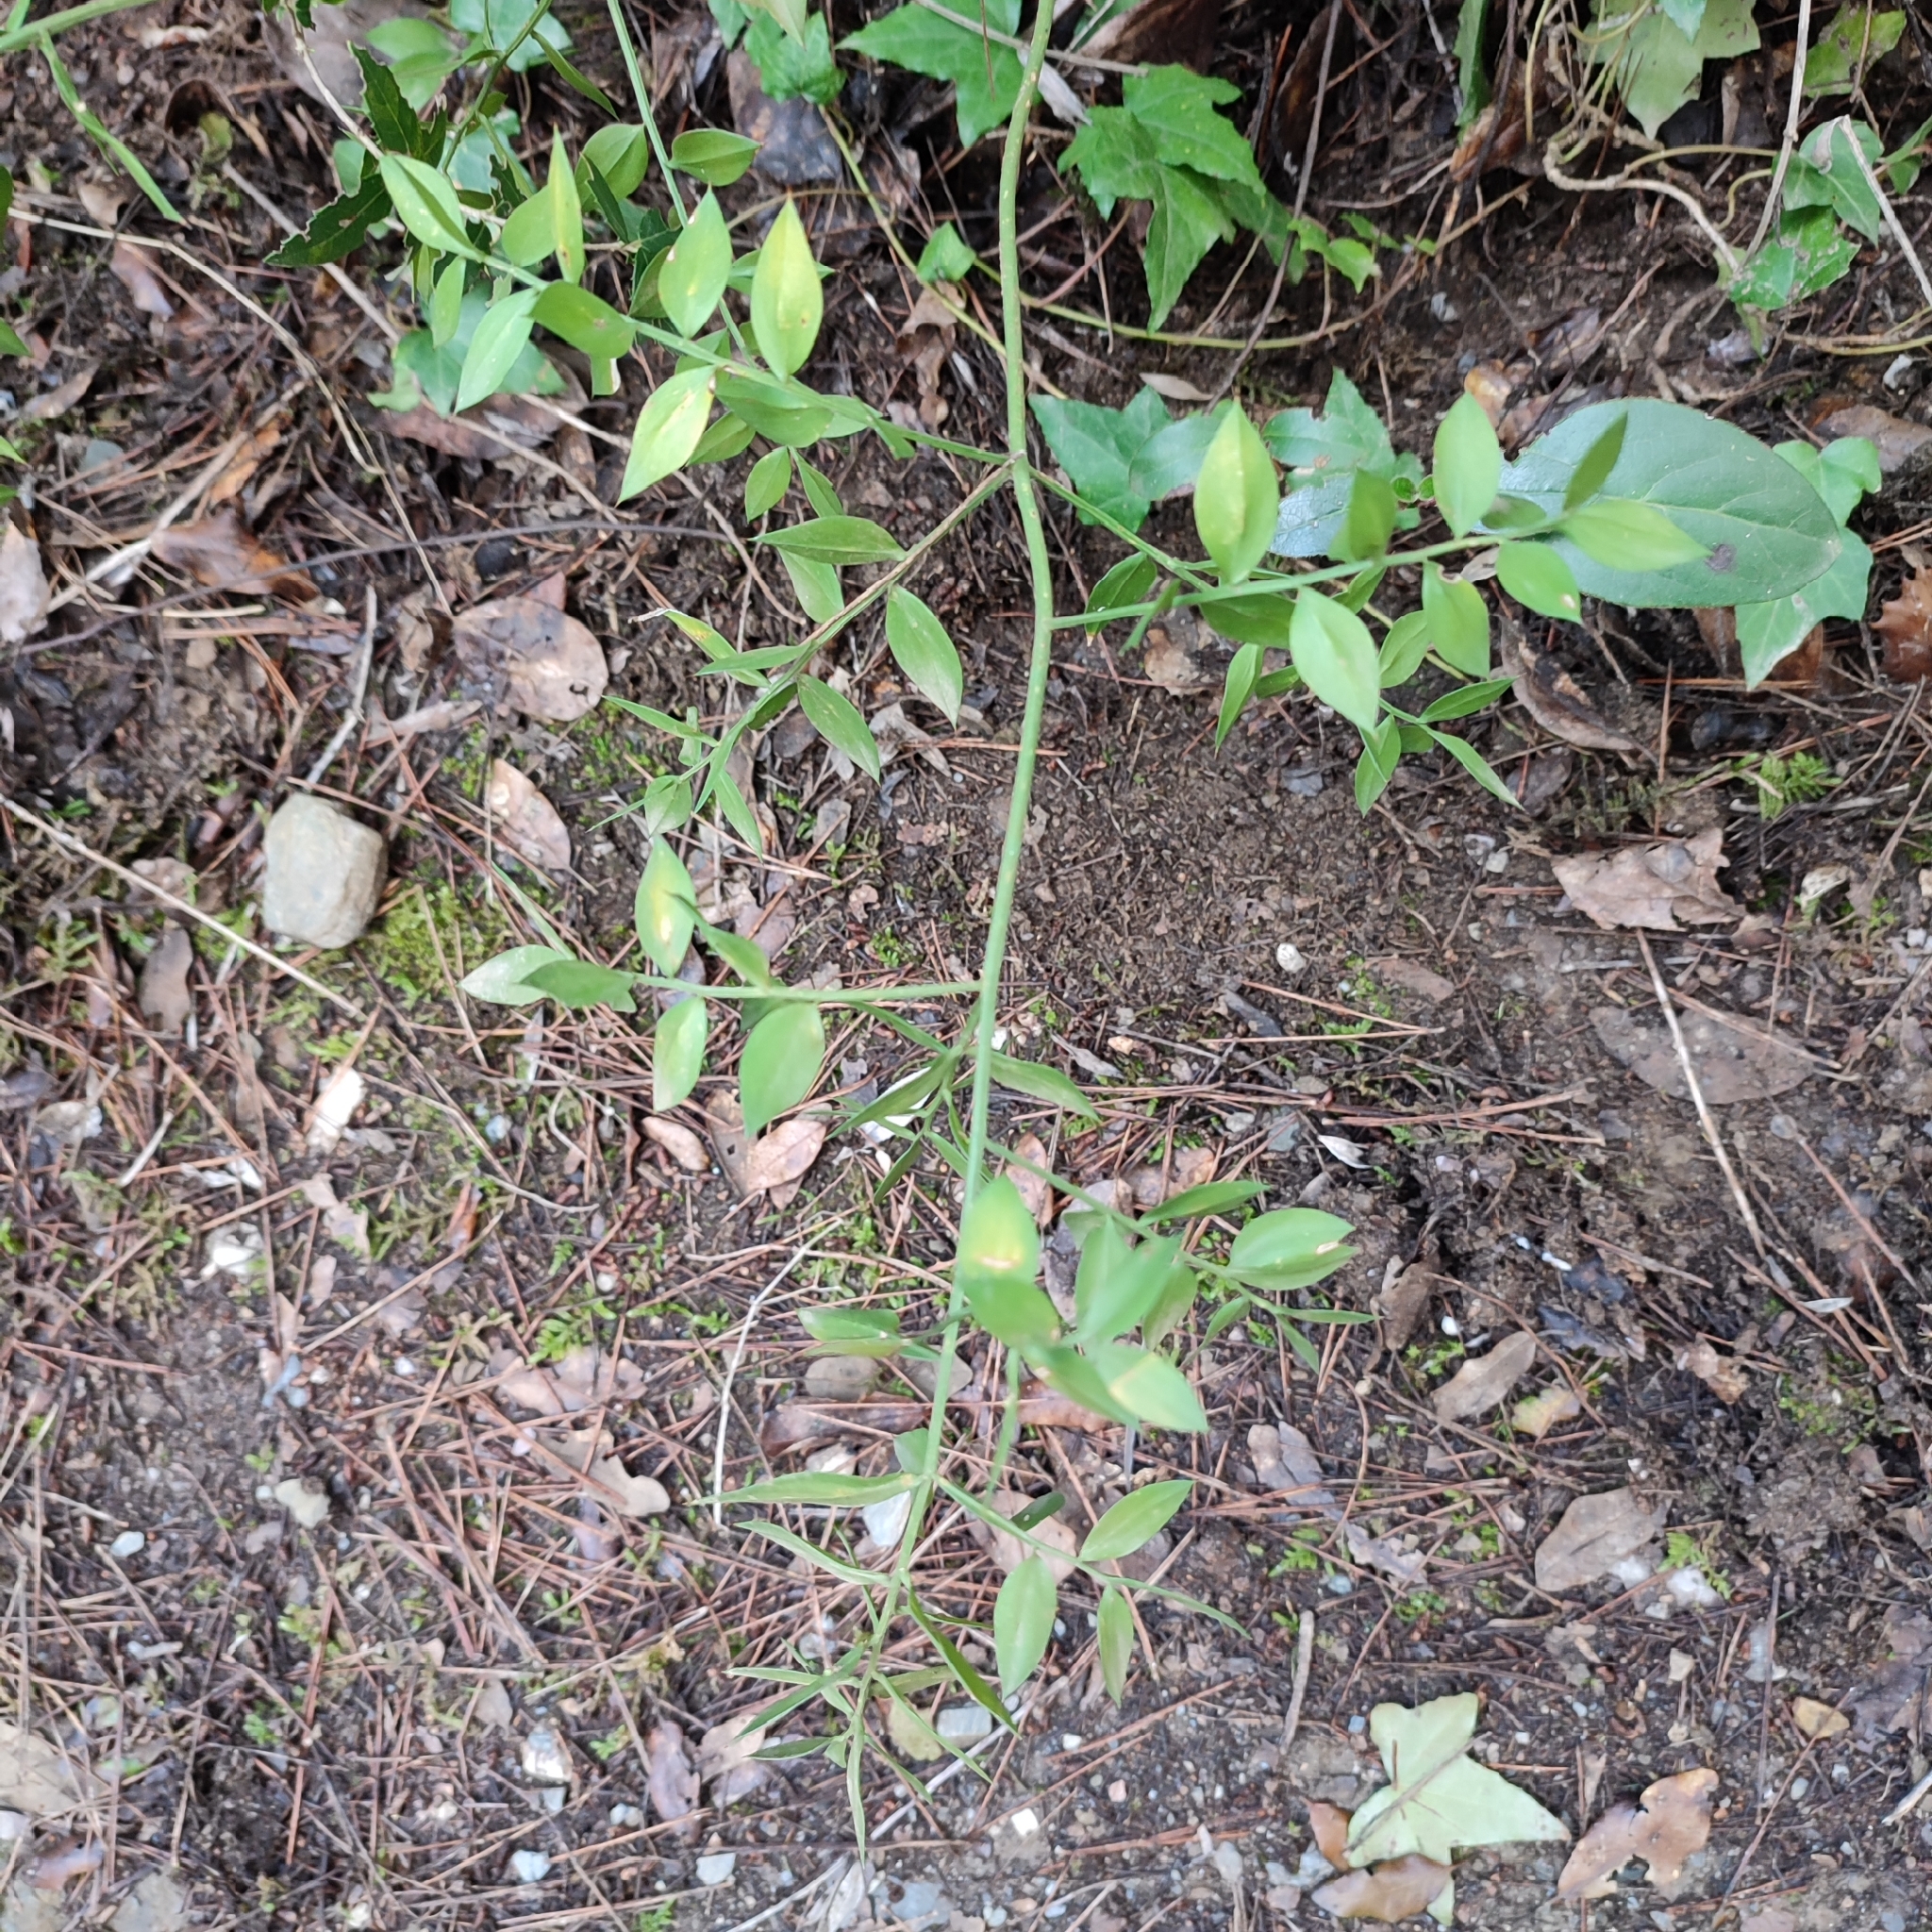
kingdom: Plantae
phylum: Tracheophyta
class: Liliopsida
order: Asparagales
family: Asparagaceae
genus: Ruscus
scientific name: Ruscus aculeatus
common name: Butcher's-broom
